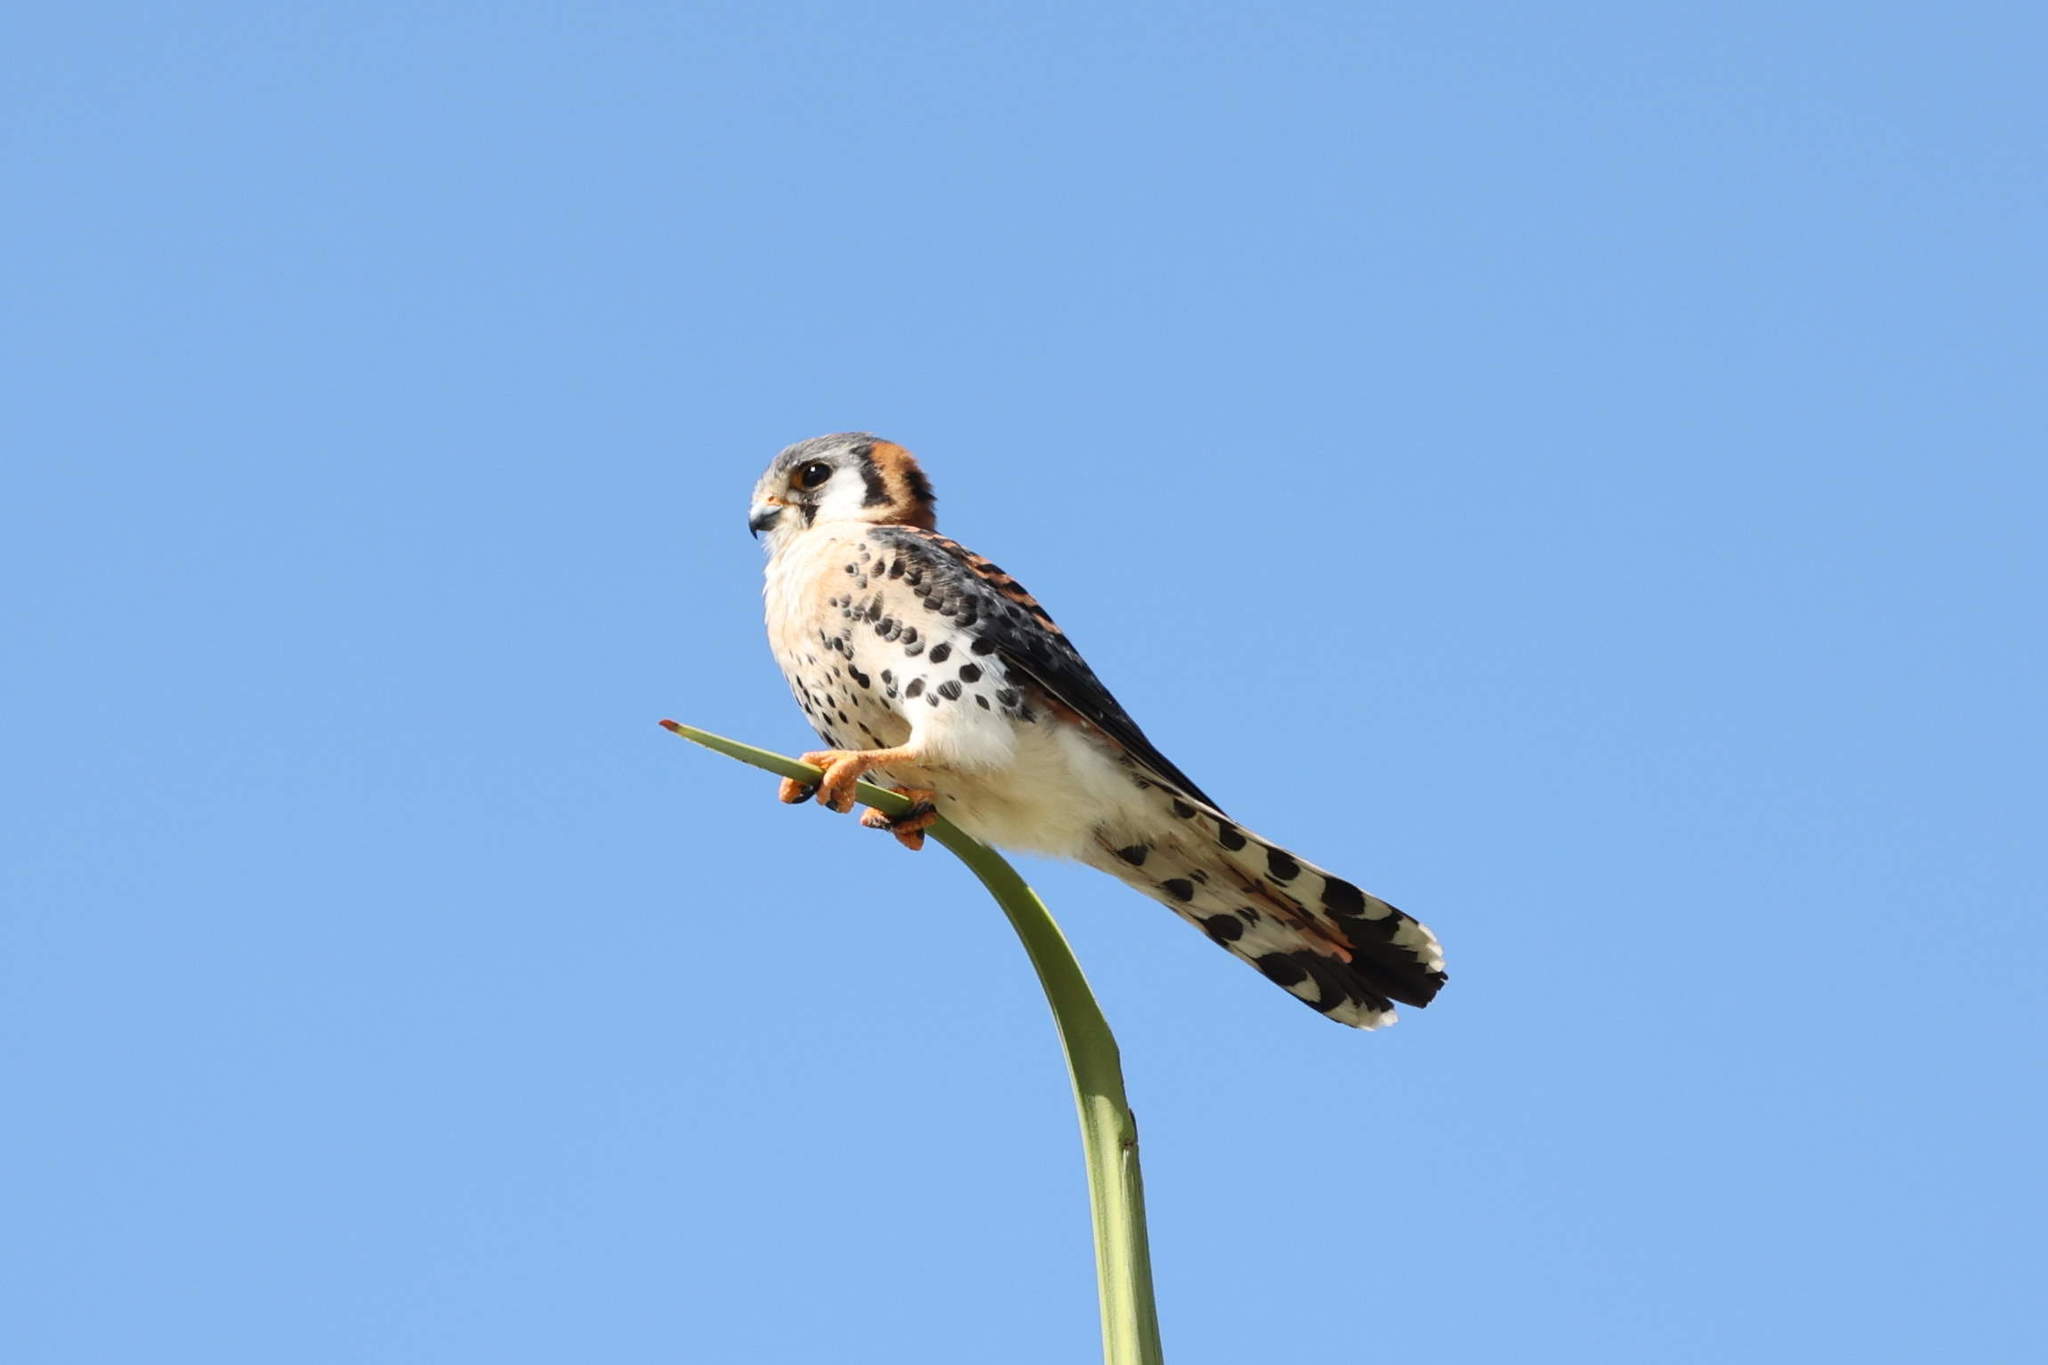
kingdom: Animalia
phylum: Chordata
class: Aves
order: Falconiformes
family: Falconidae
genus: Falco
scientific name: Falco sparverius
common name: American kestrel
